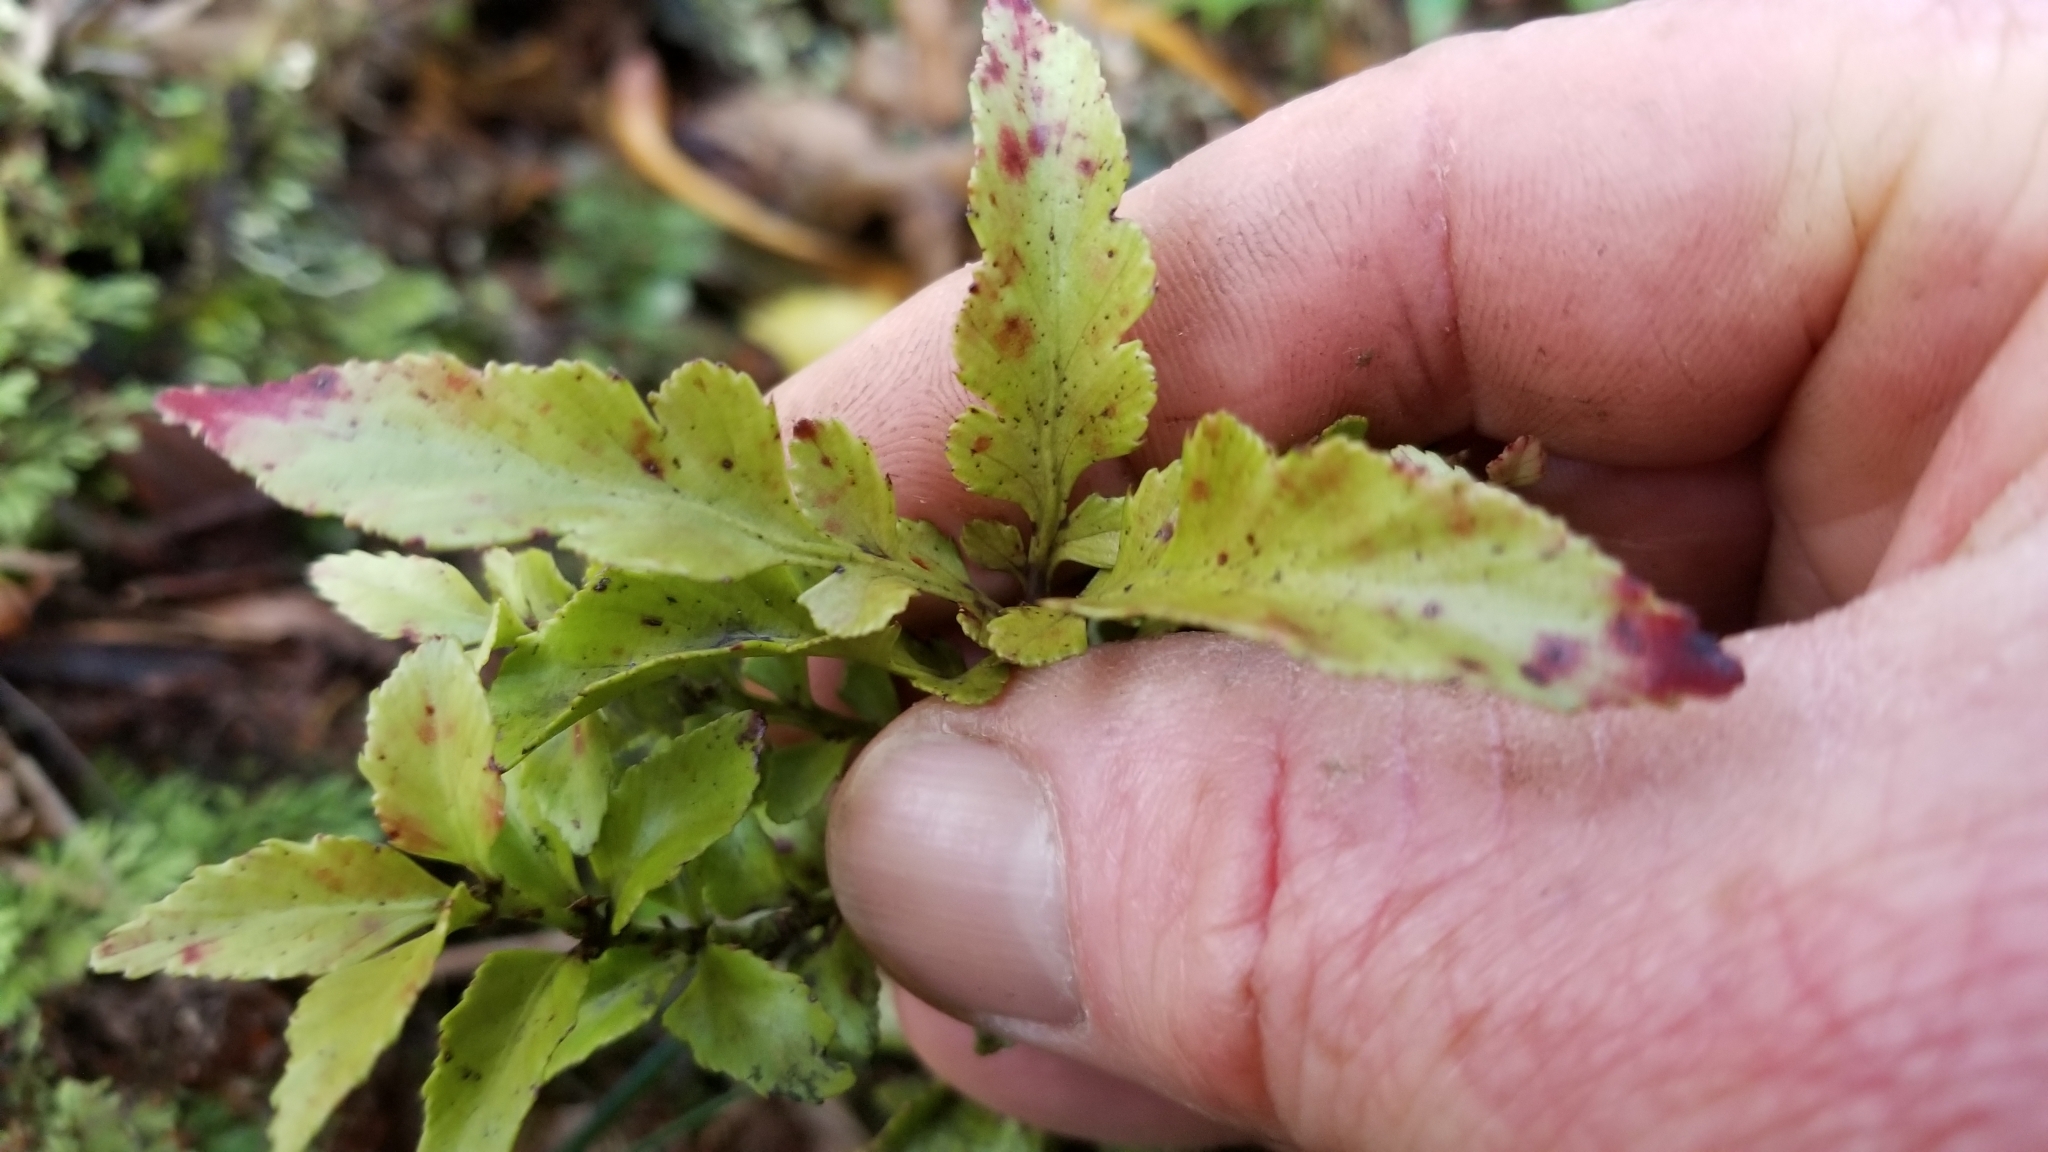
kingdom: Plantae
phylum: Tracheophyta
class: Pinopsida
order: Pinales
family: Phyllocladaceae
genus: Phyllocladus
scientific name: Phyllocladus trichomanoides
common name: Celery pine
